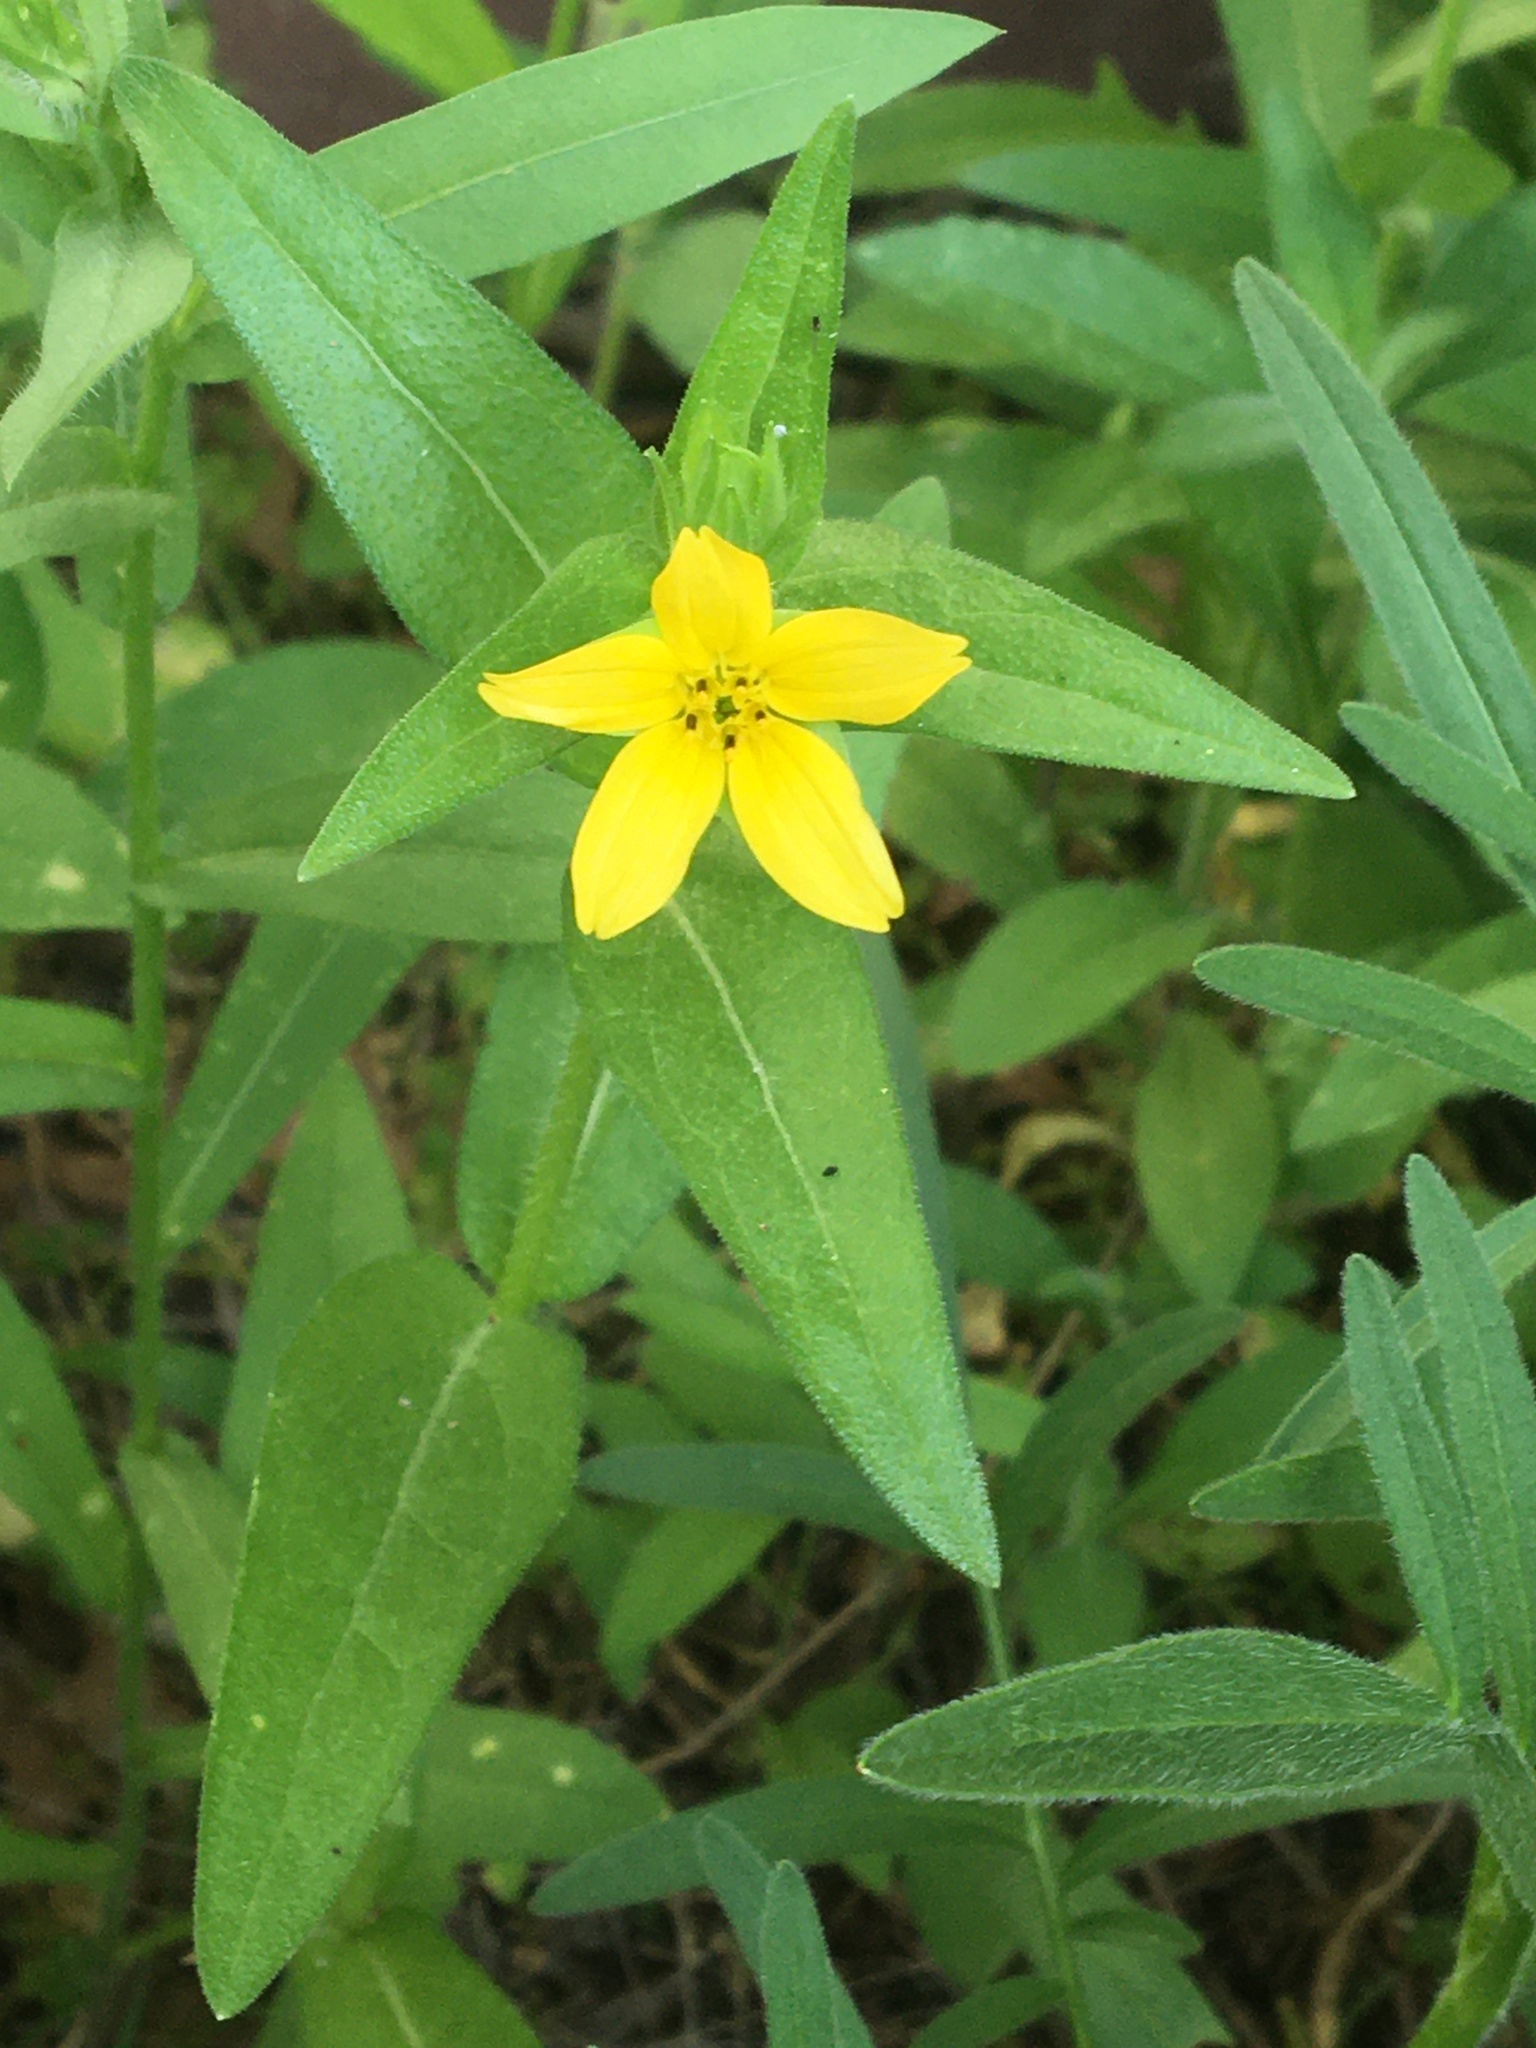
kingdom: Plantae
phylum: Tracheophyta
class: Magnoliopsida
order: Asterales
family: Asteraceae
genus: Lindheimera
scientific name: Lindheimera texana
